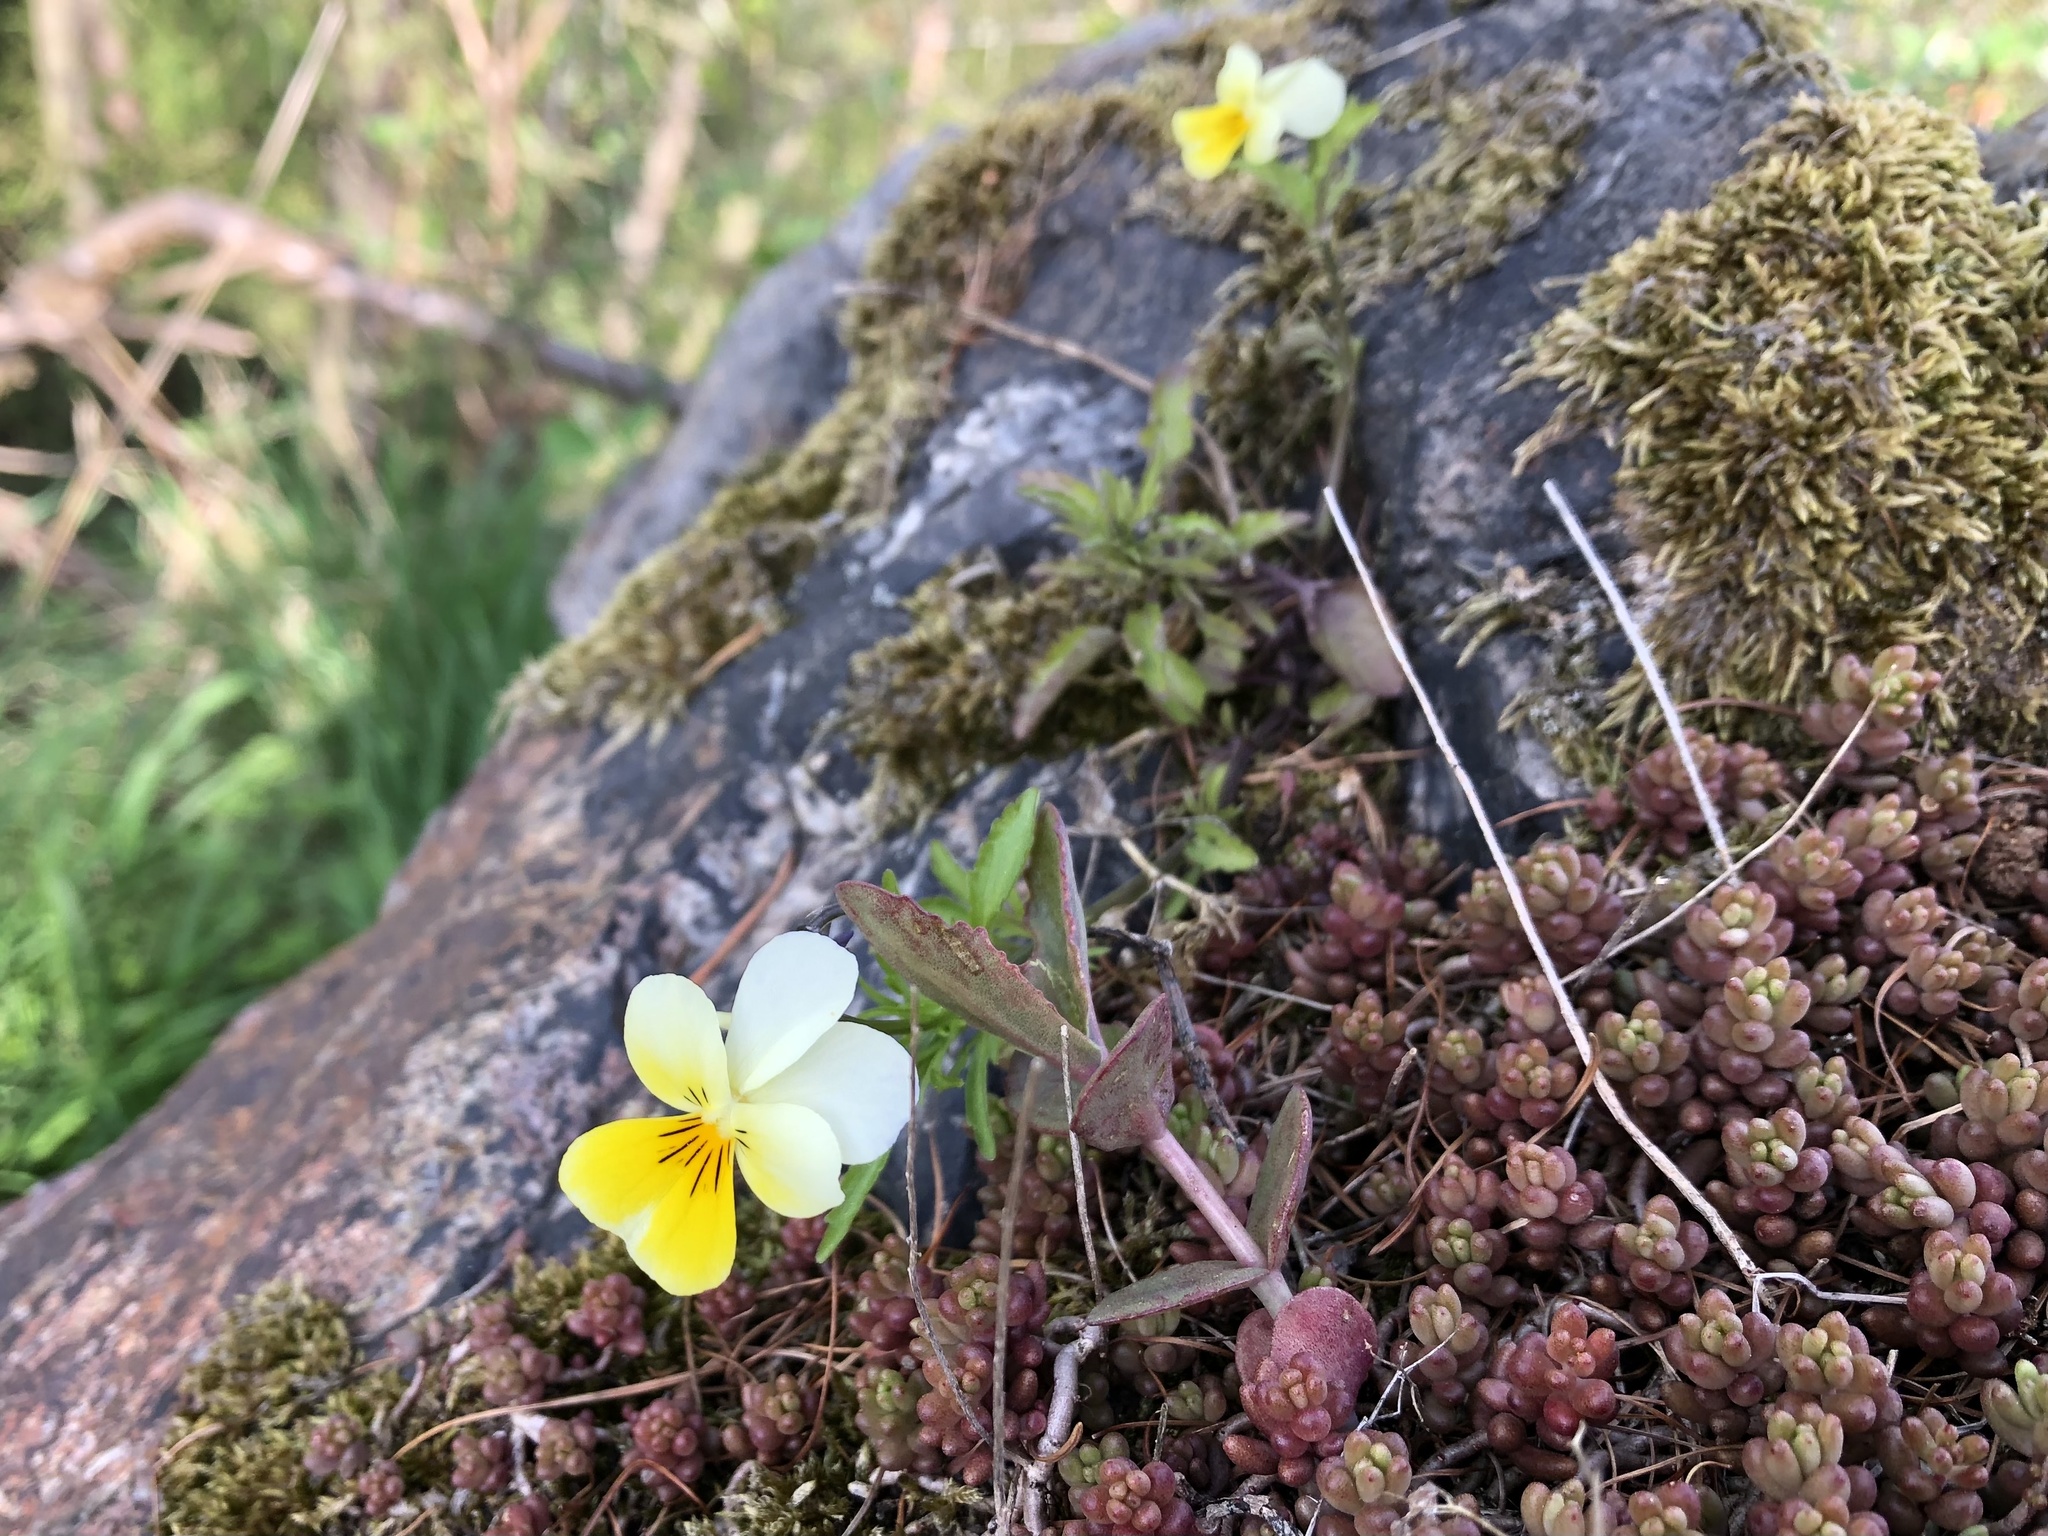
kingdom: Plantae
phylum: Tracheophyta
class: Magnoliopsida
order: Malpighiales
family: Violaceae
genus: Viola
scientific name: Viola arvensis
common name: Field pansy
